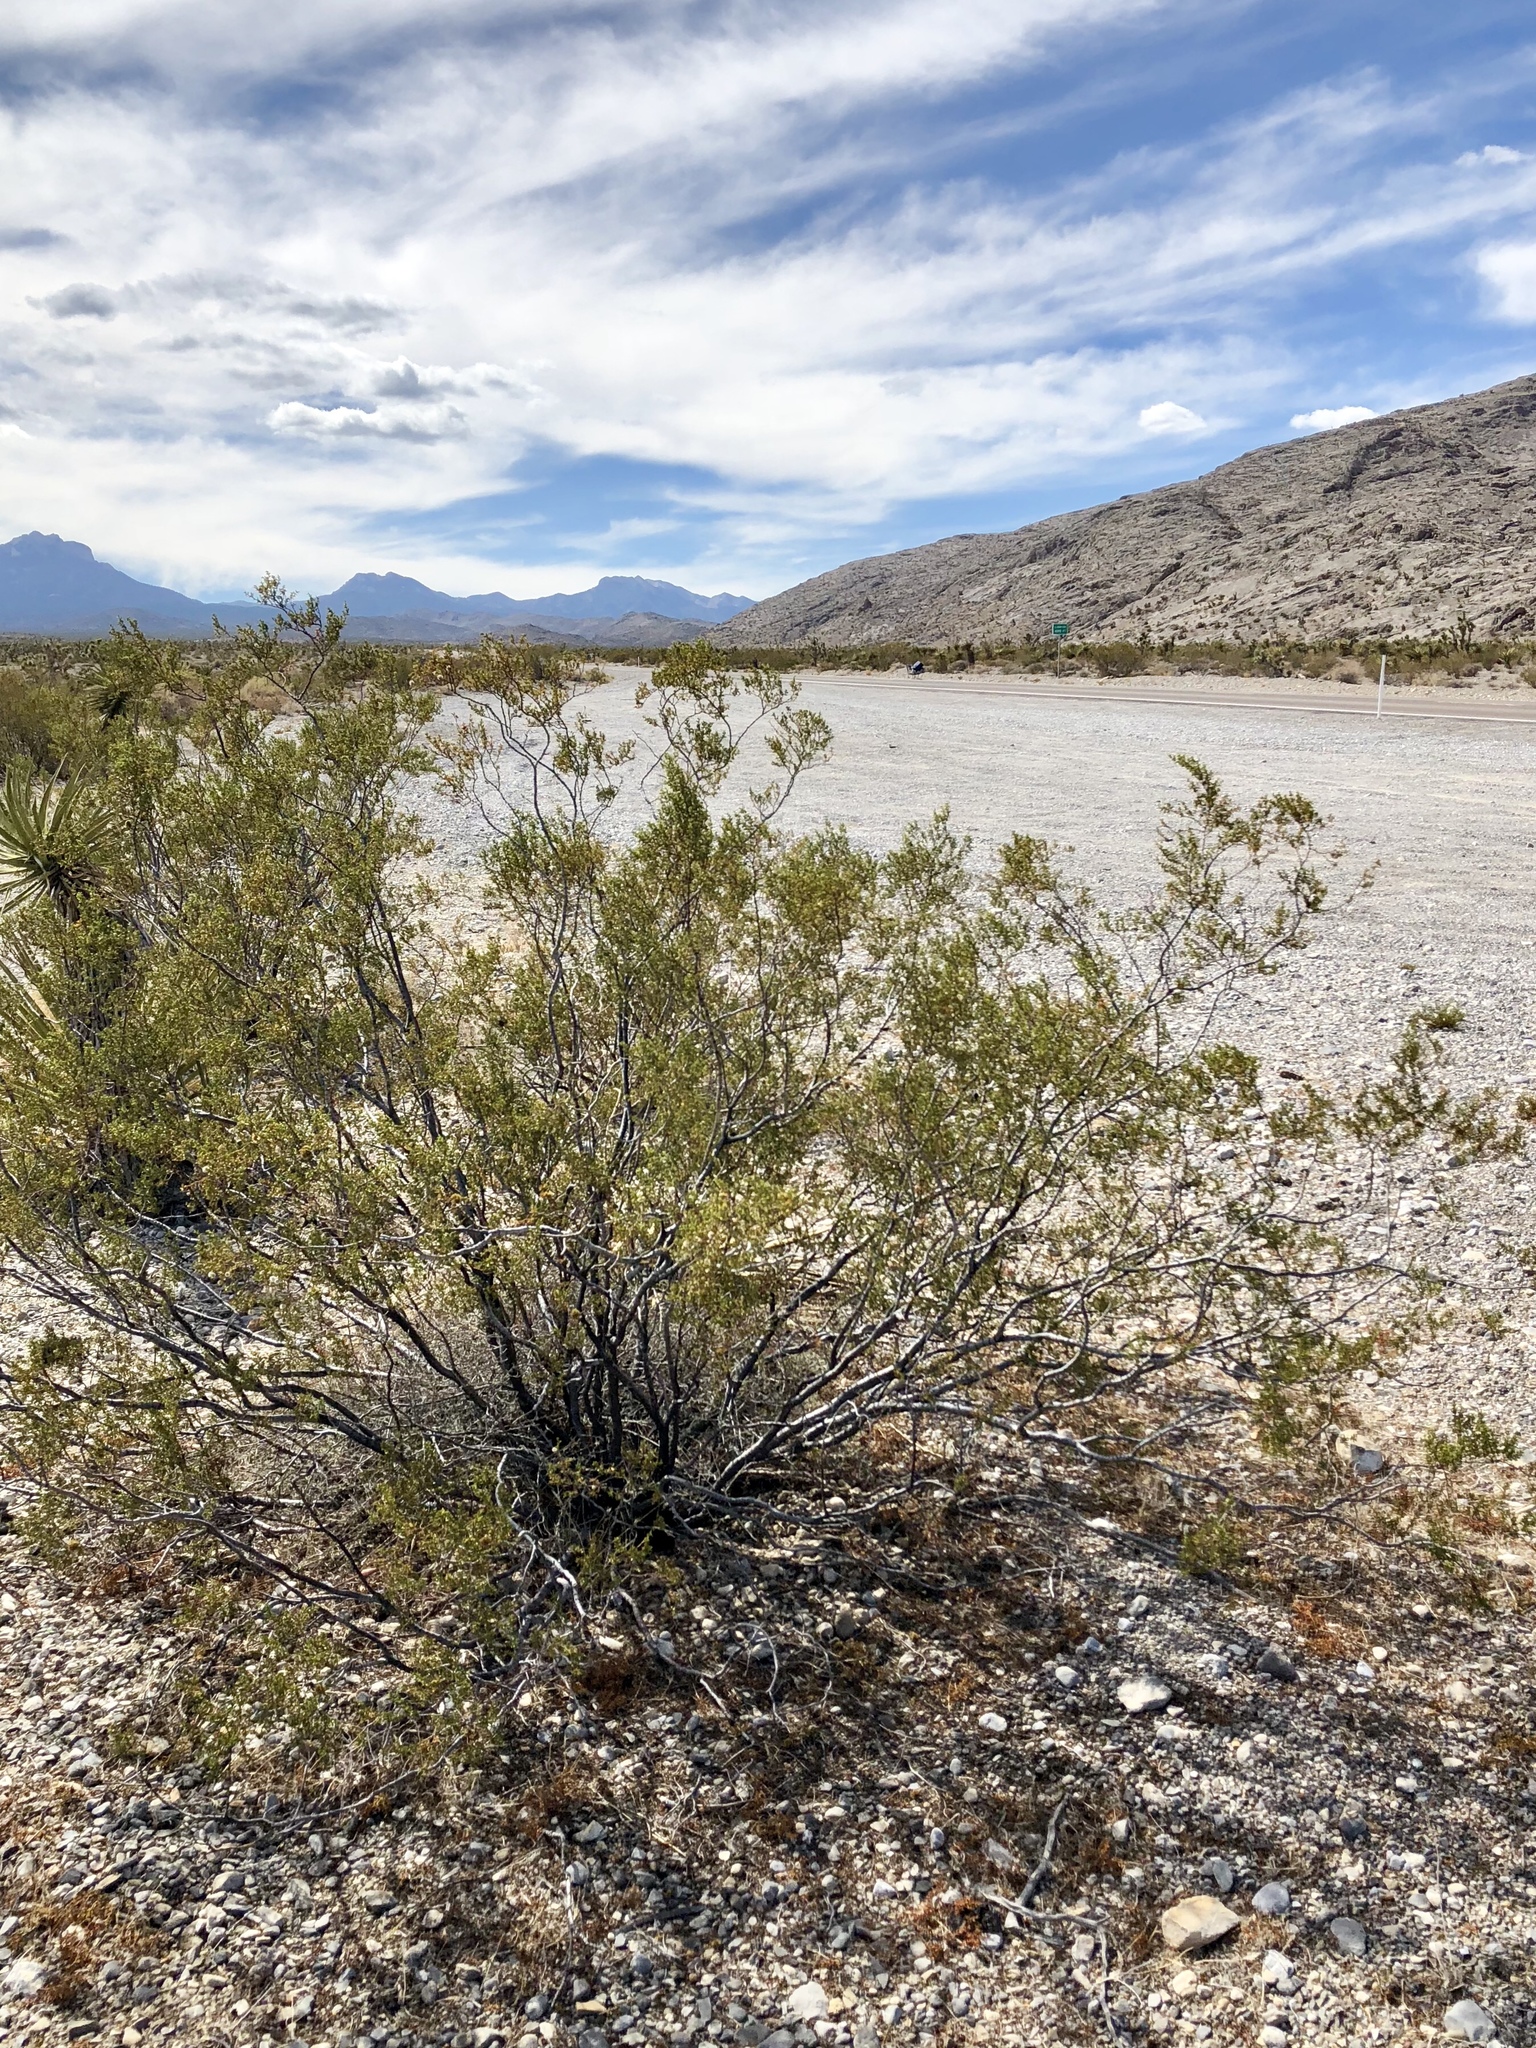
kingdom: Plantae
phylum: Tracheophyta
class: Magnoliopsida
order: Zygophyllales
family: Zygophyllaceae
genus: Larrea
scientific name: Larrea tridentata
